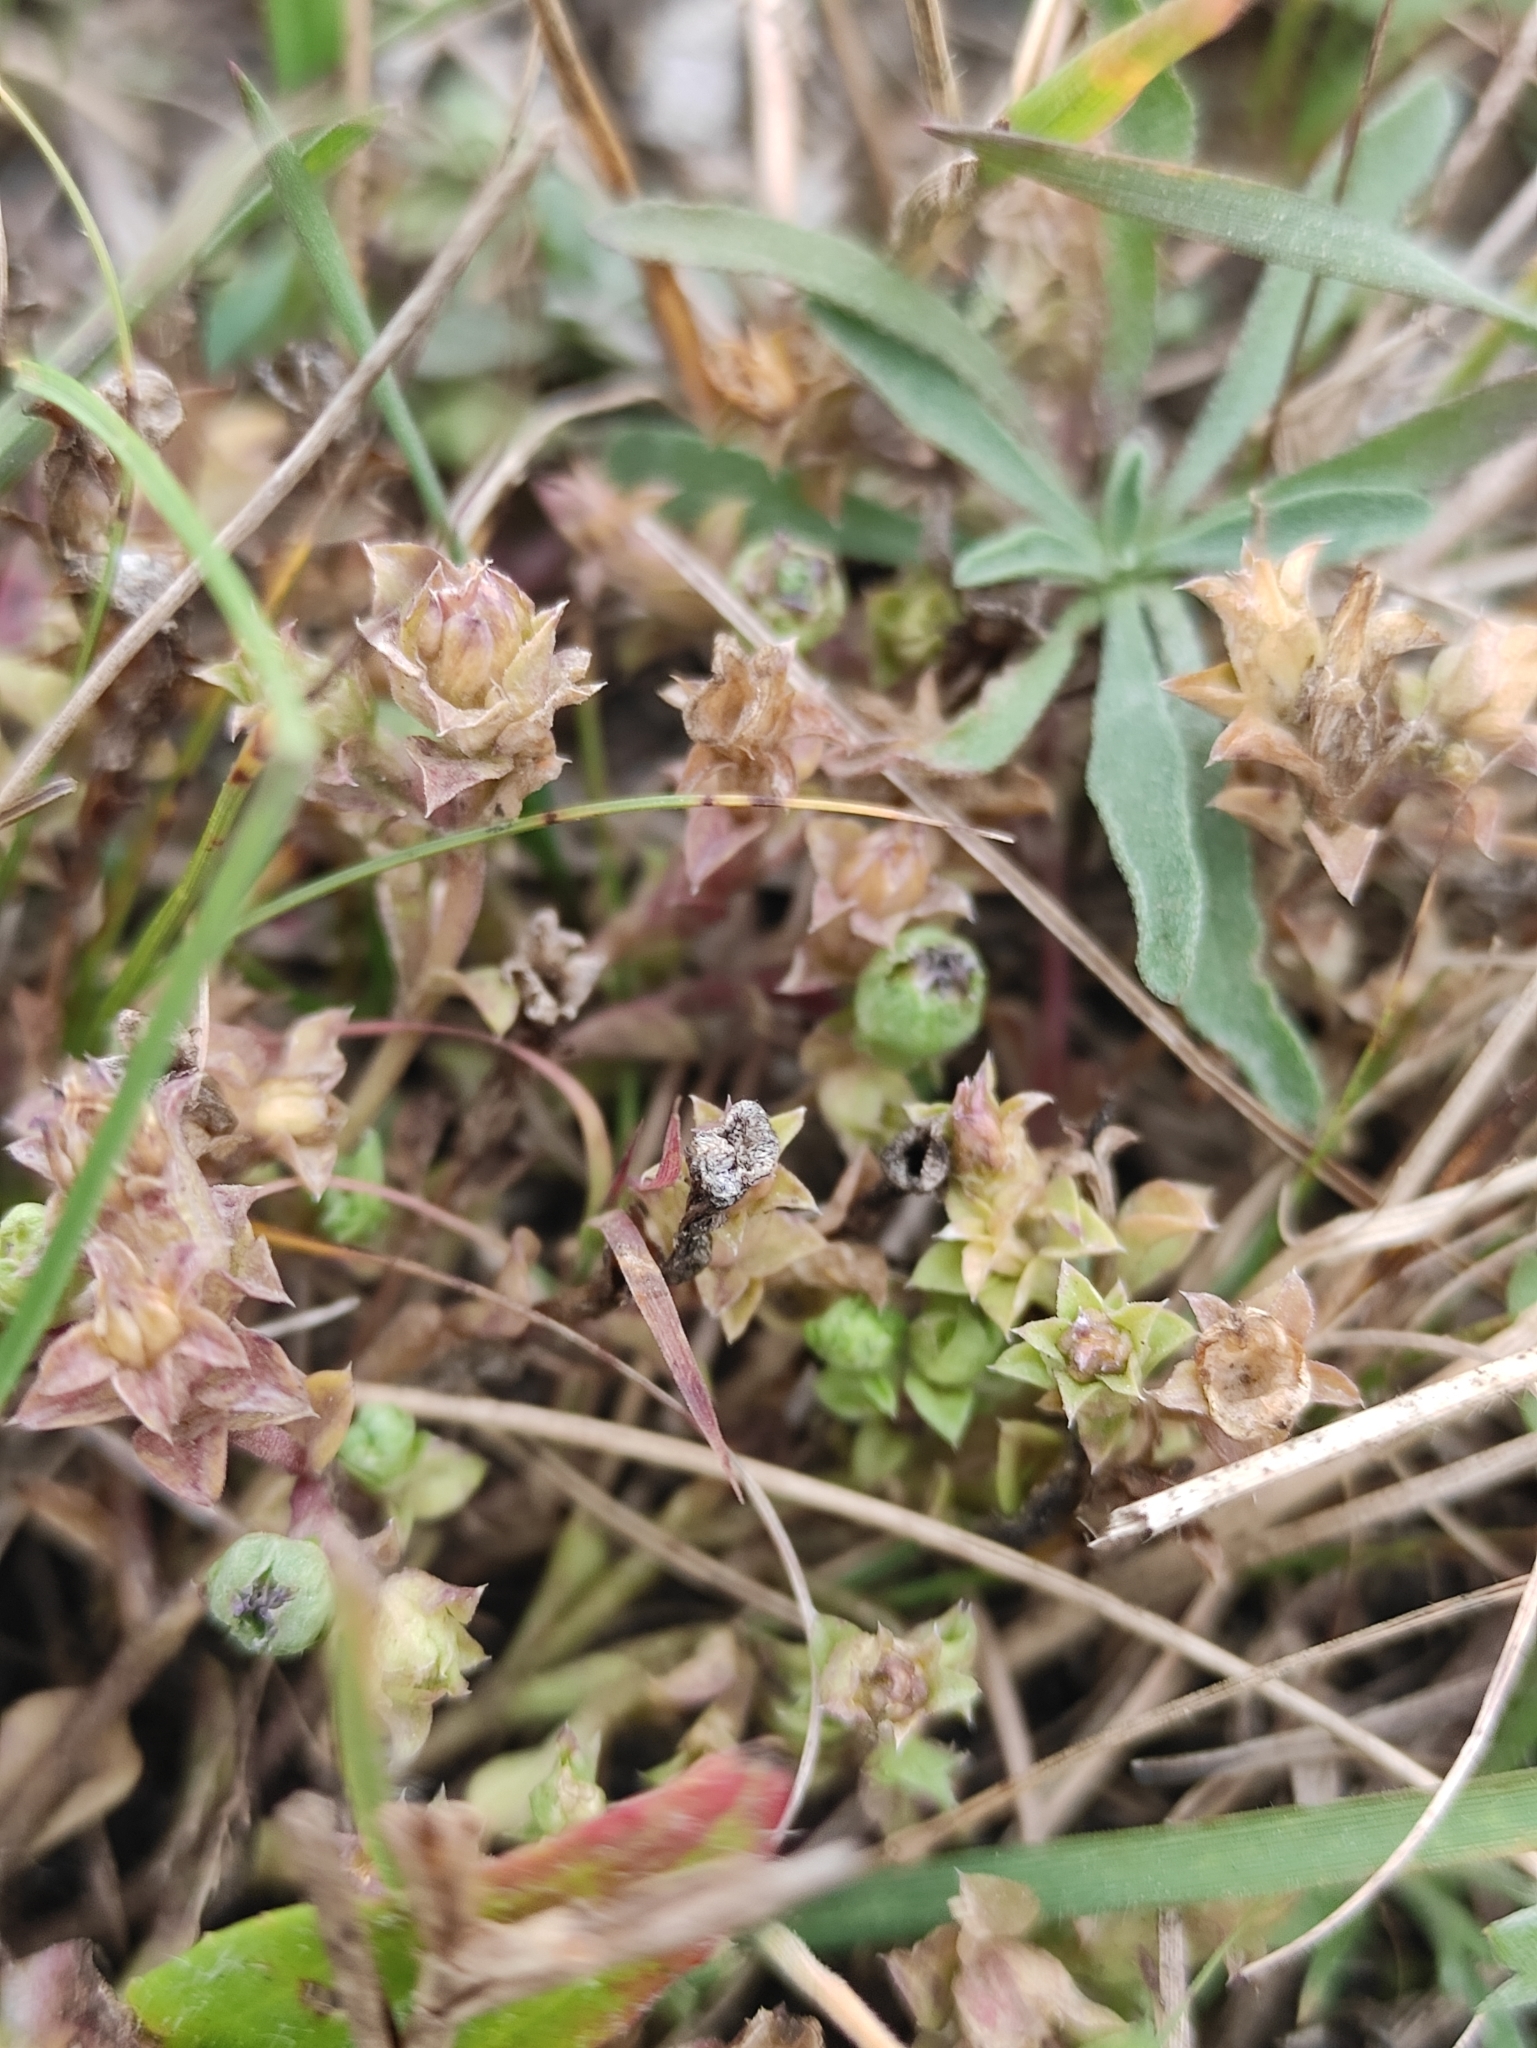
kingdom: Plantae
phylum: Tracheophyta
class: Magnoliopsida
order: Gentianales
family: Gentianaceae
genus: Gentiana
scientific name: Gentiana squarrosa
